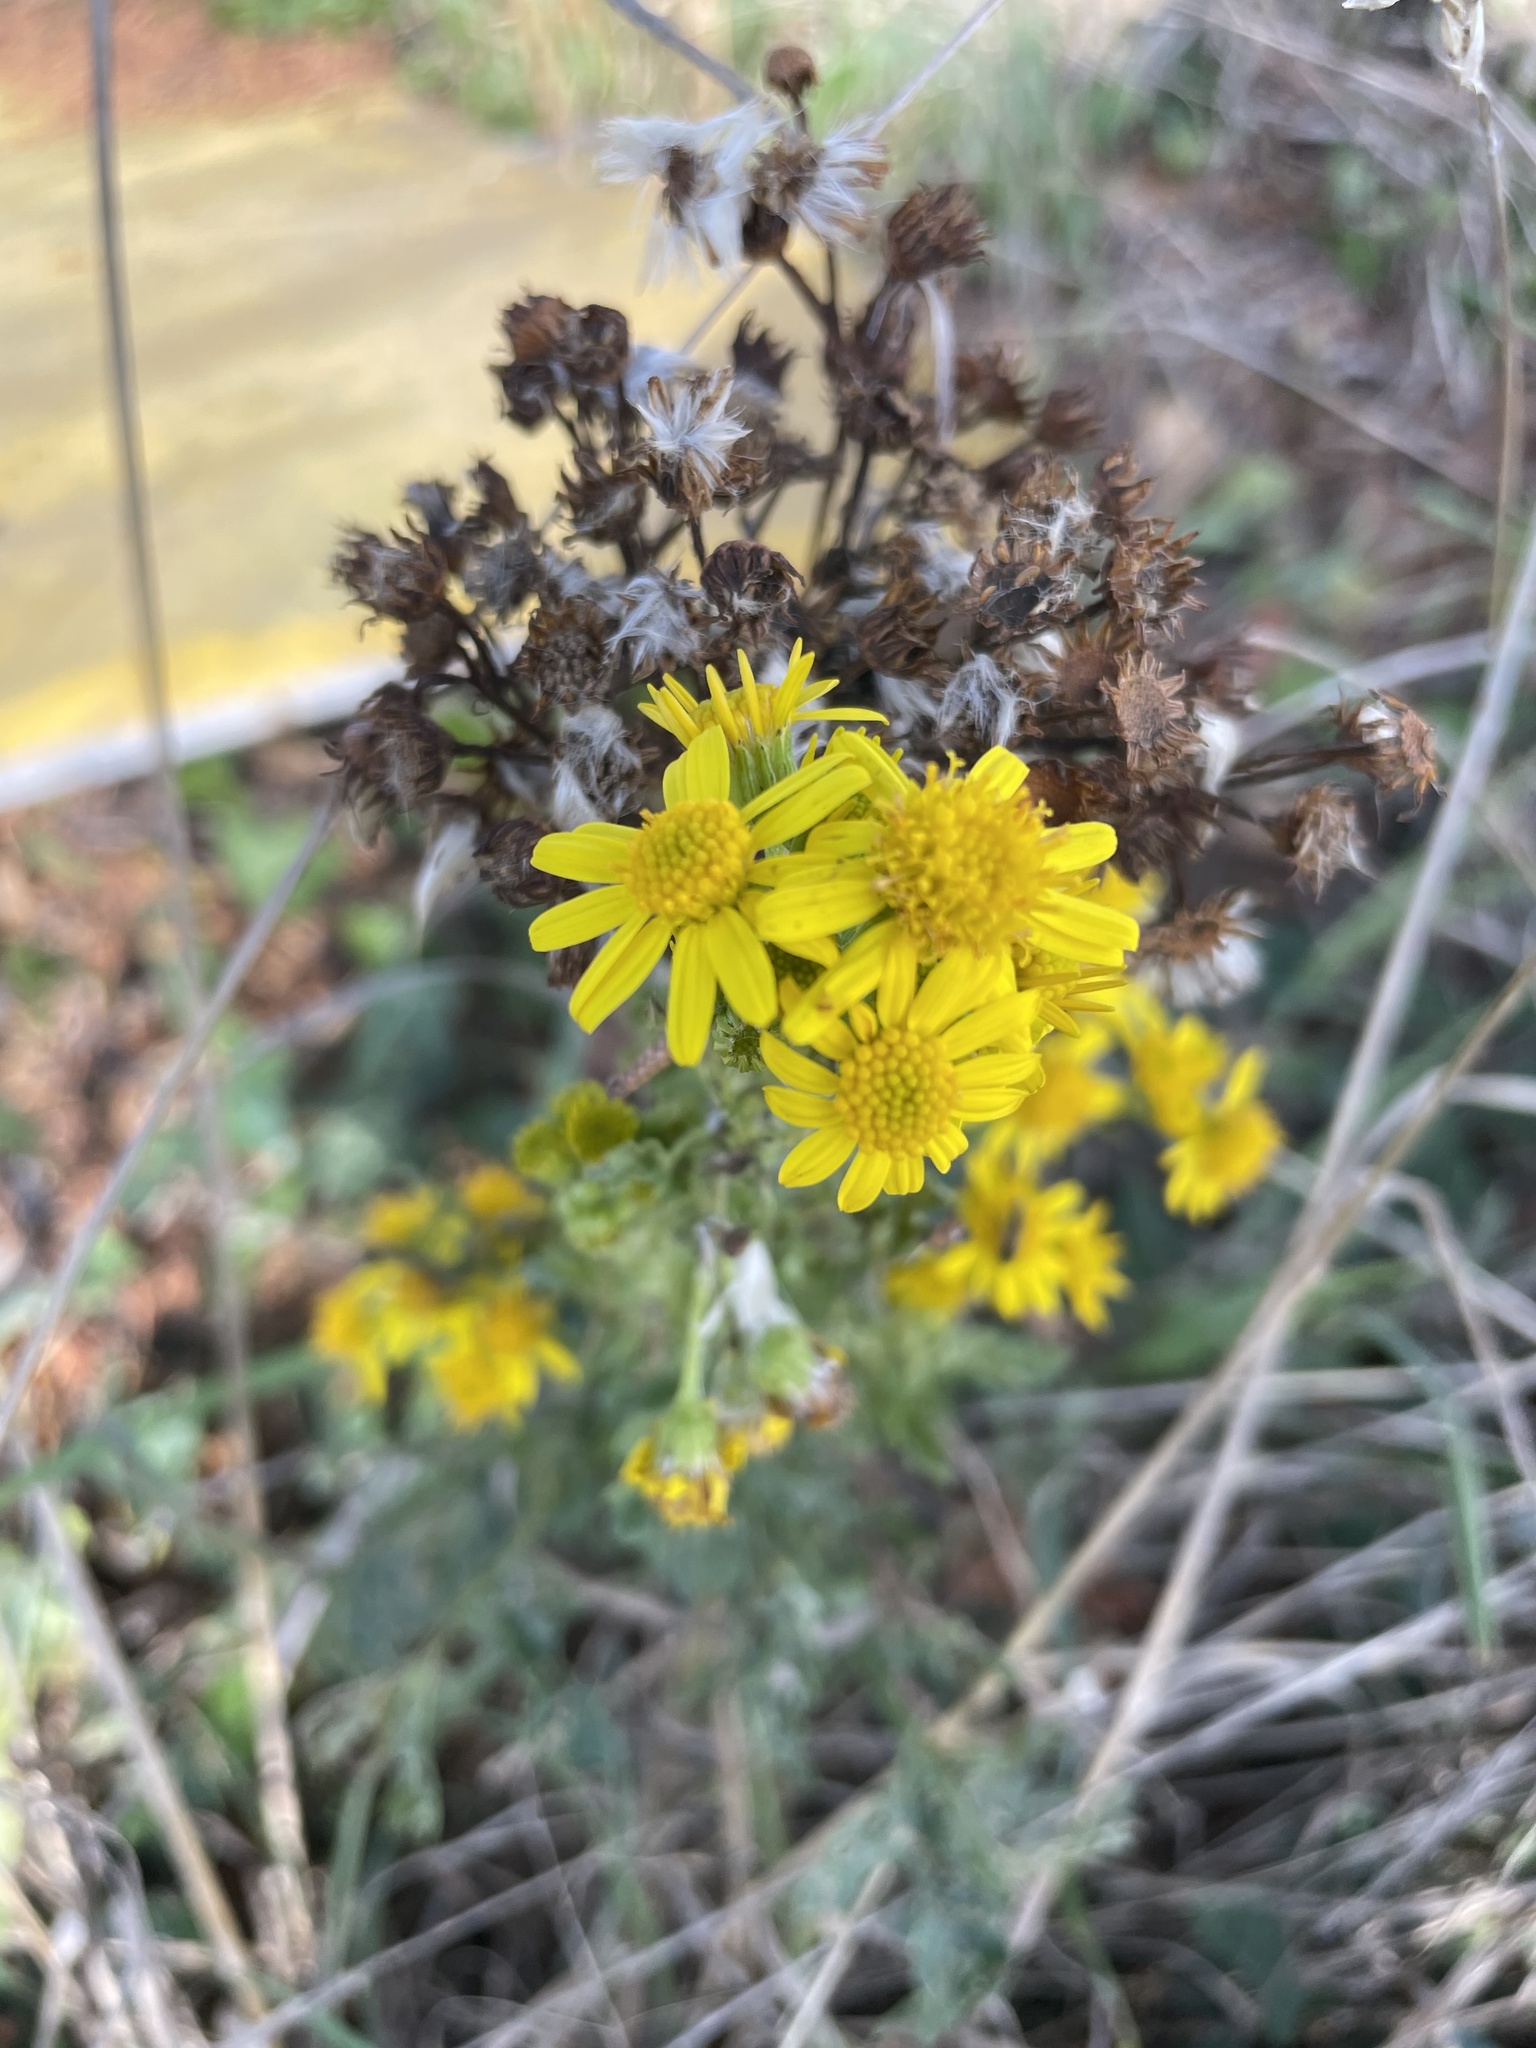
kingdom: Plantae
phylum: Tracheophyta
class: Magnoliopsida
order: Asterales
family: Asteraceae
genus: Jacobaea
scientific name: Jacobaea vulgaris
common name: Stinking willie
